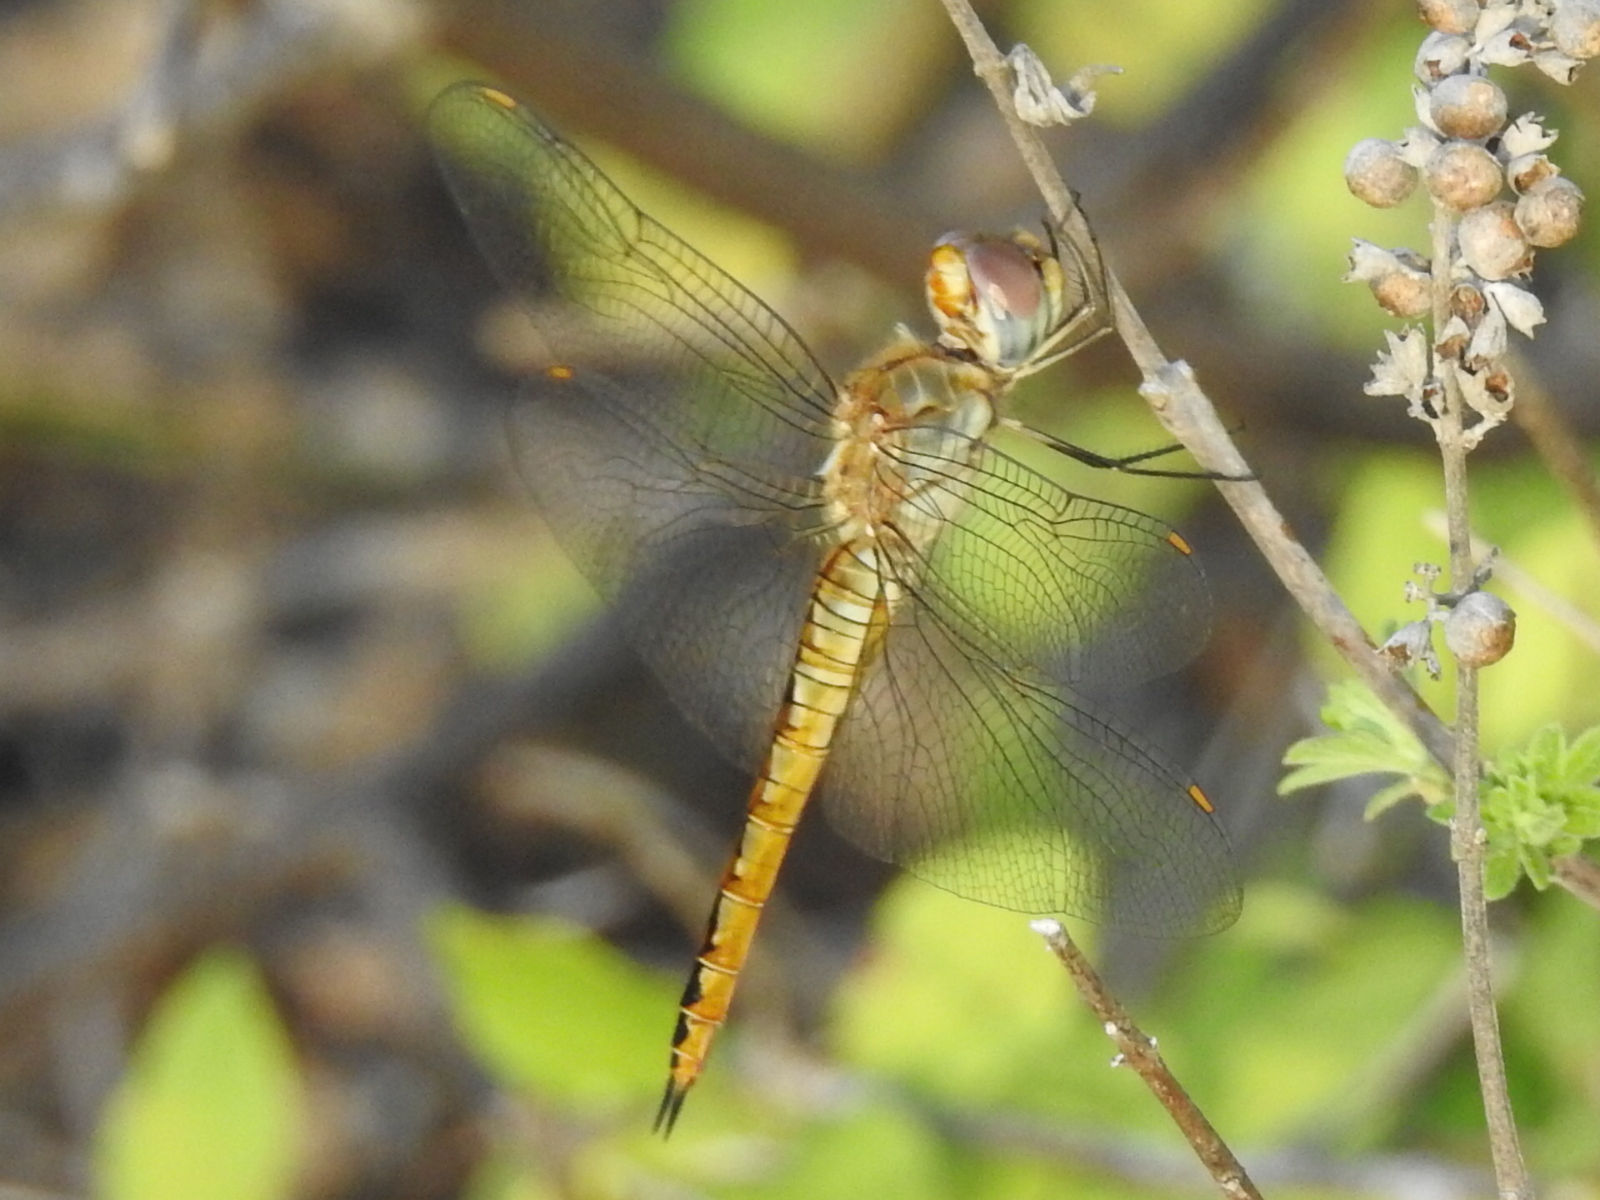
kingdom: Animalia
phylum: Arthropoda
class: Insecta
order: Odonata
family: Libellulidae
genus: Pantala
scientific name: Pantala flavescens
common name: Wandering glider
